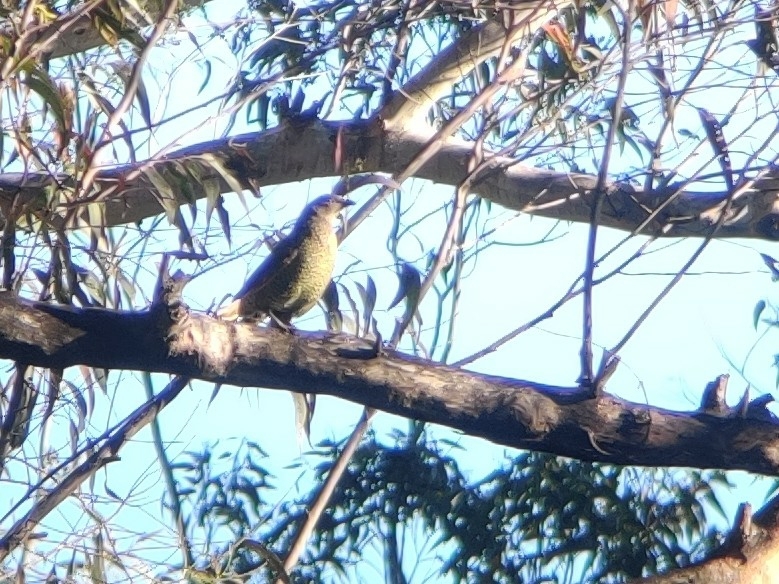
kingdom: Animalia
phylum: Chordata
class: Aves
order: Passeriformes
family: Ptilonorhynchidae
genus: Ptilonorhynchus
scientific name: Ptilonorhynchus violaceus
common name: Satin bowerbird
